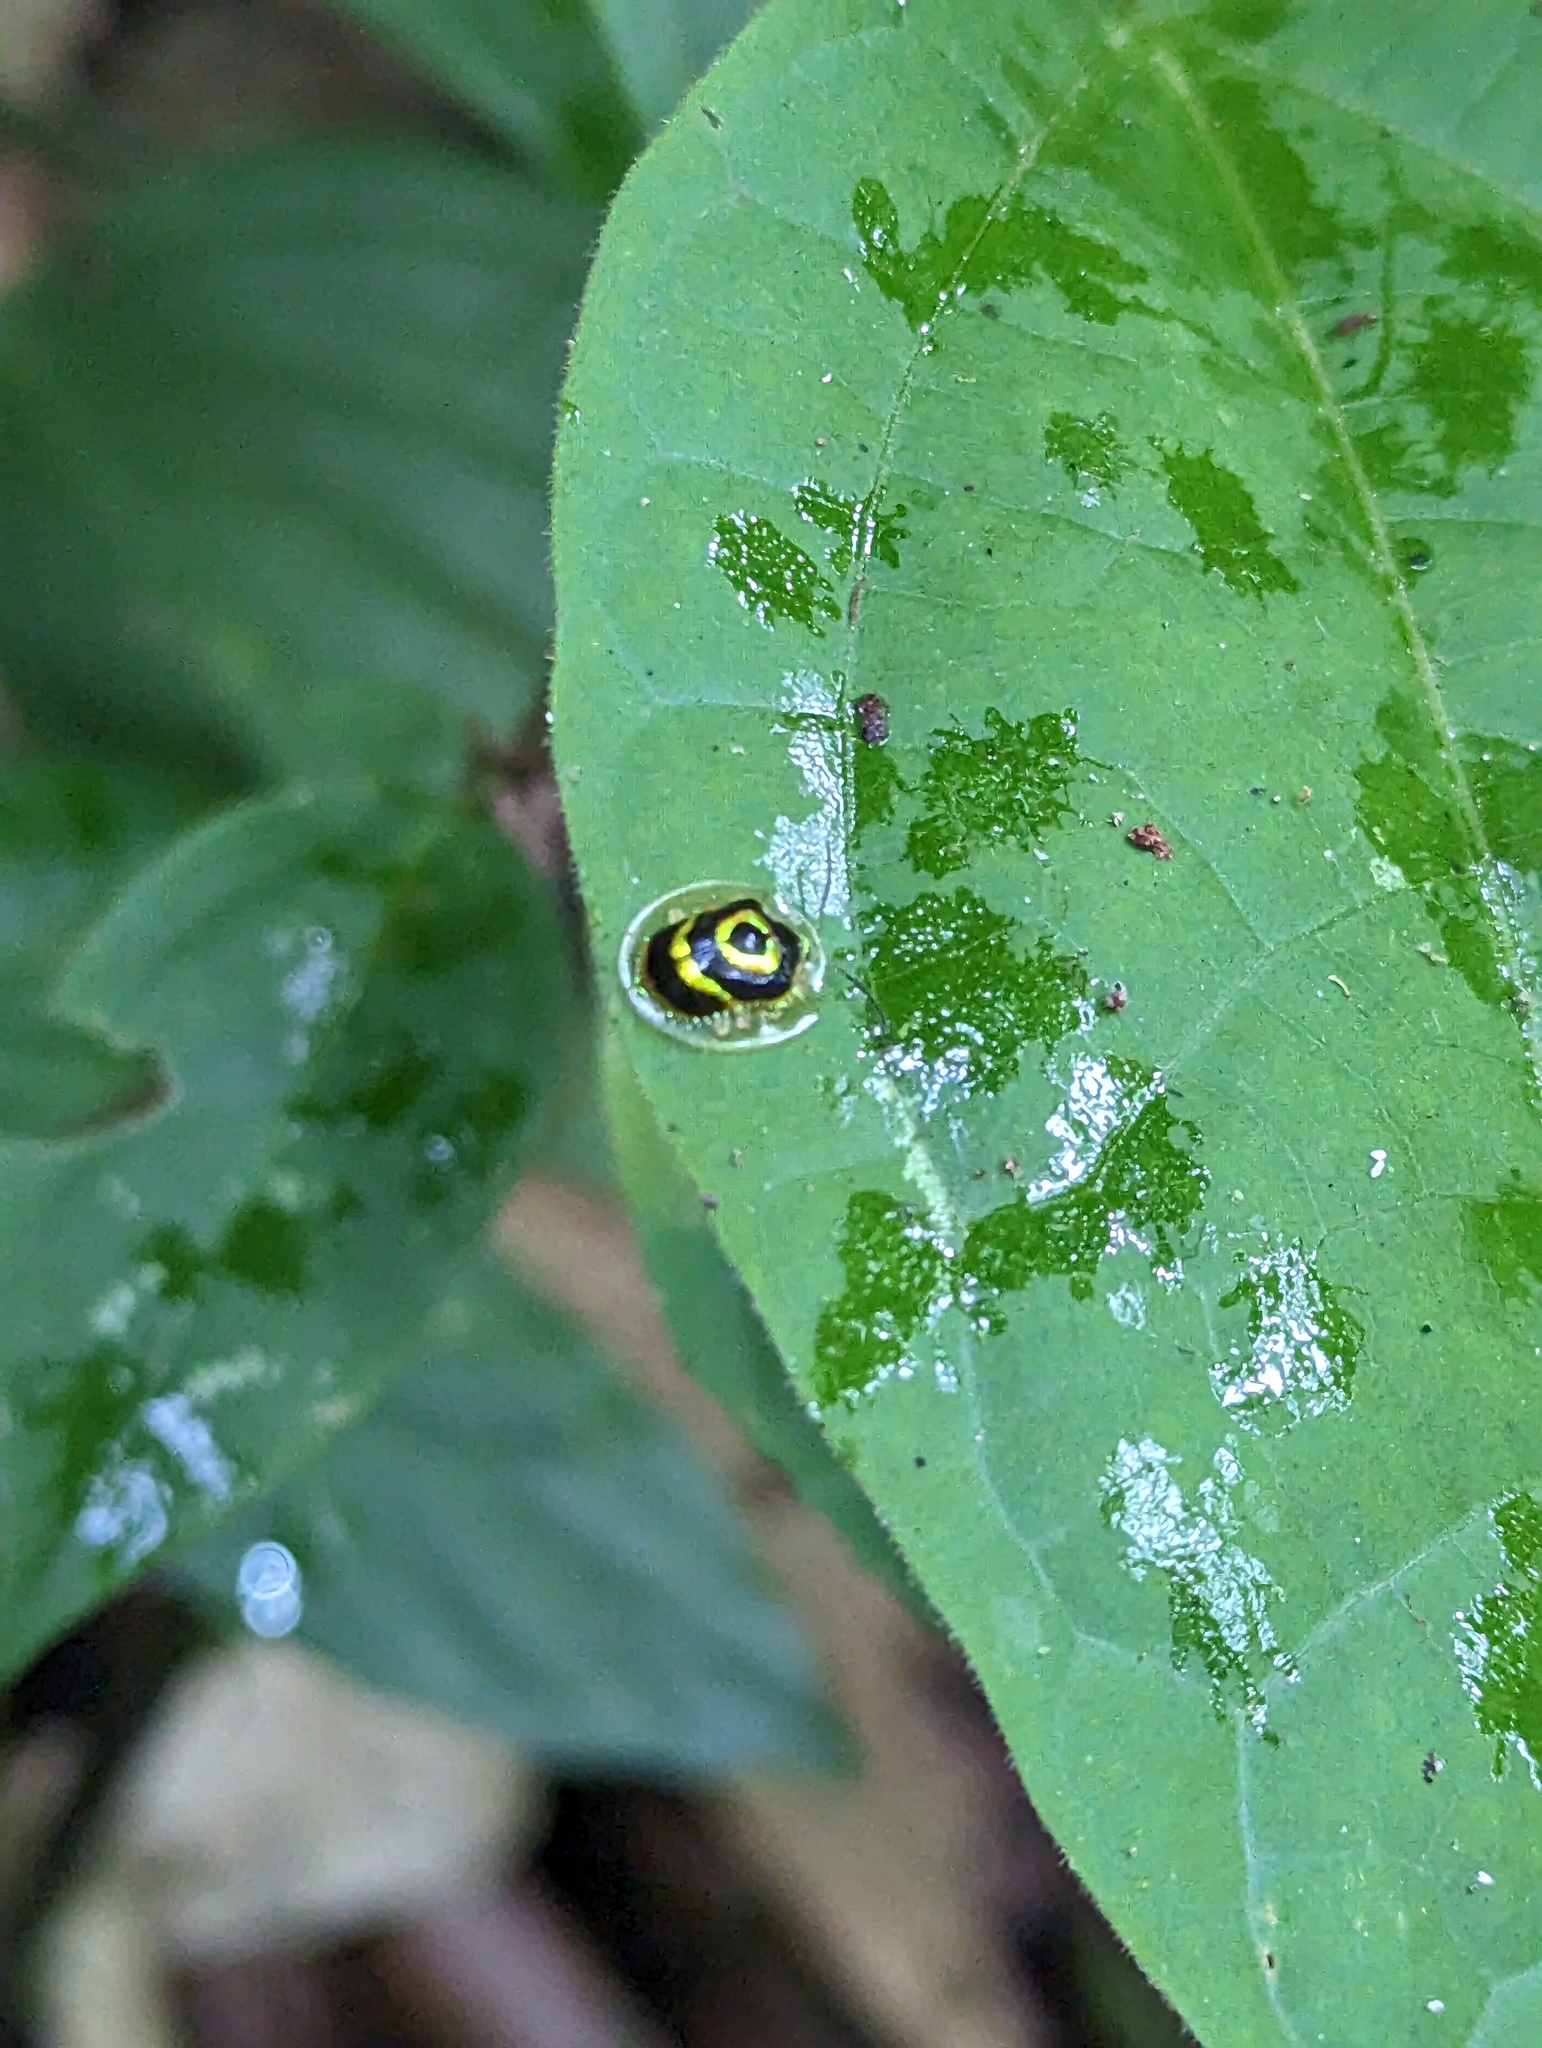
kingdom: Animalia
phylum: Arthropoda
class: Insecta
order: Coleoptera
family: Chrysomelidae
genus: Ischnocodia
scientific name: Ischnocodia annulus
